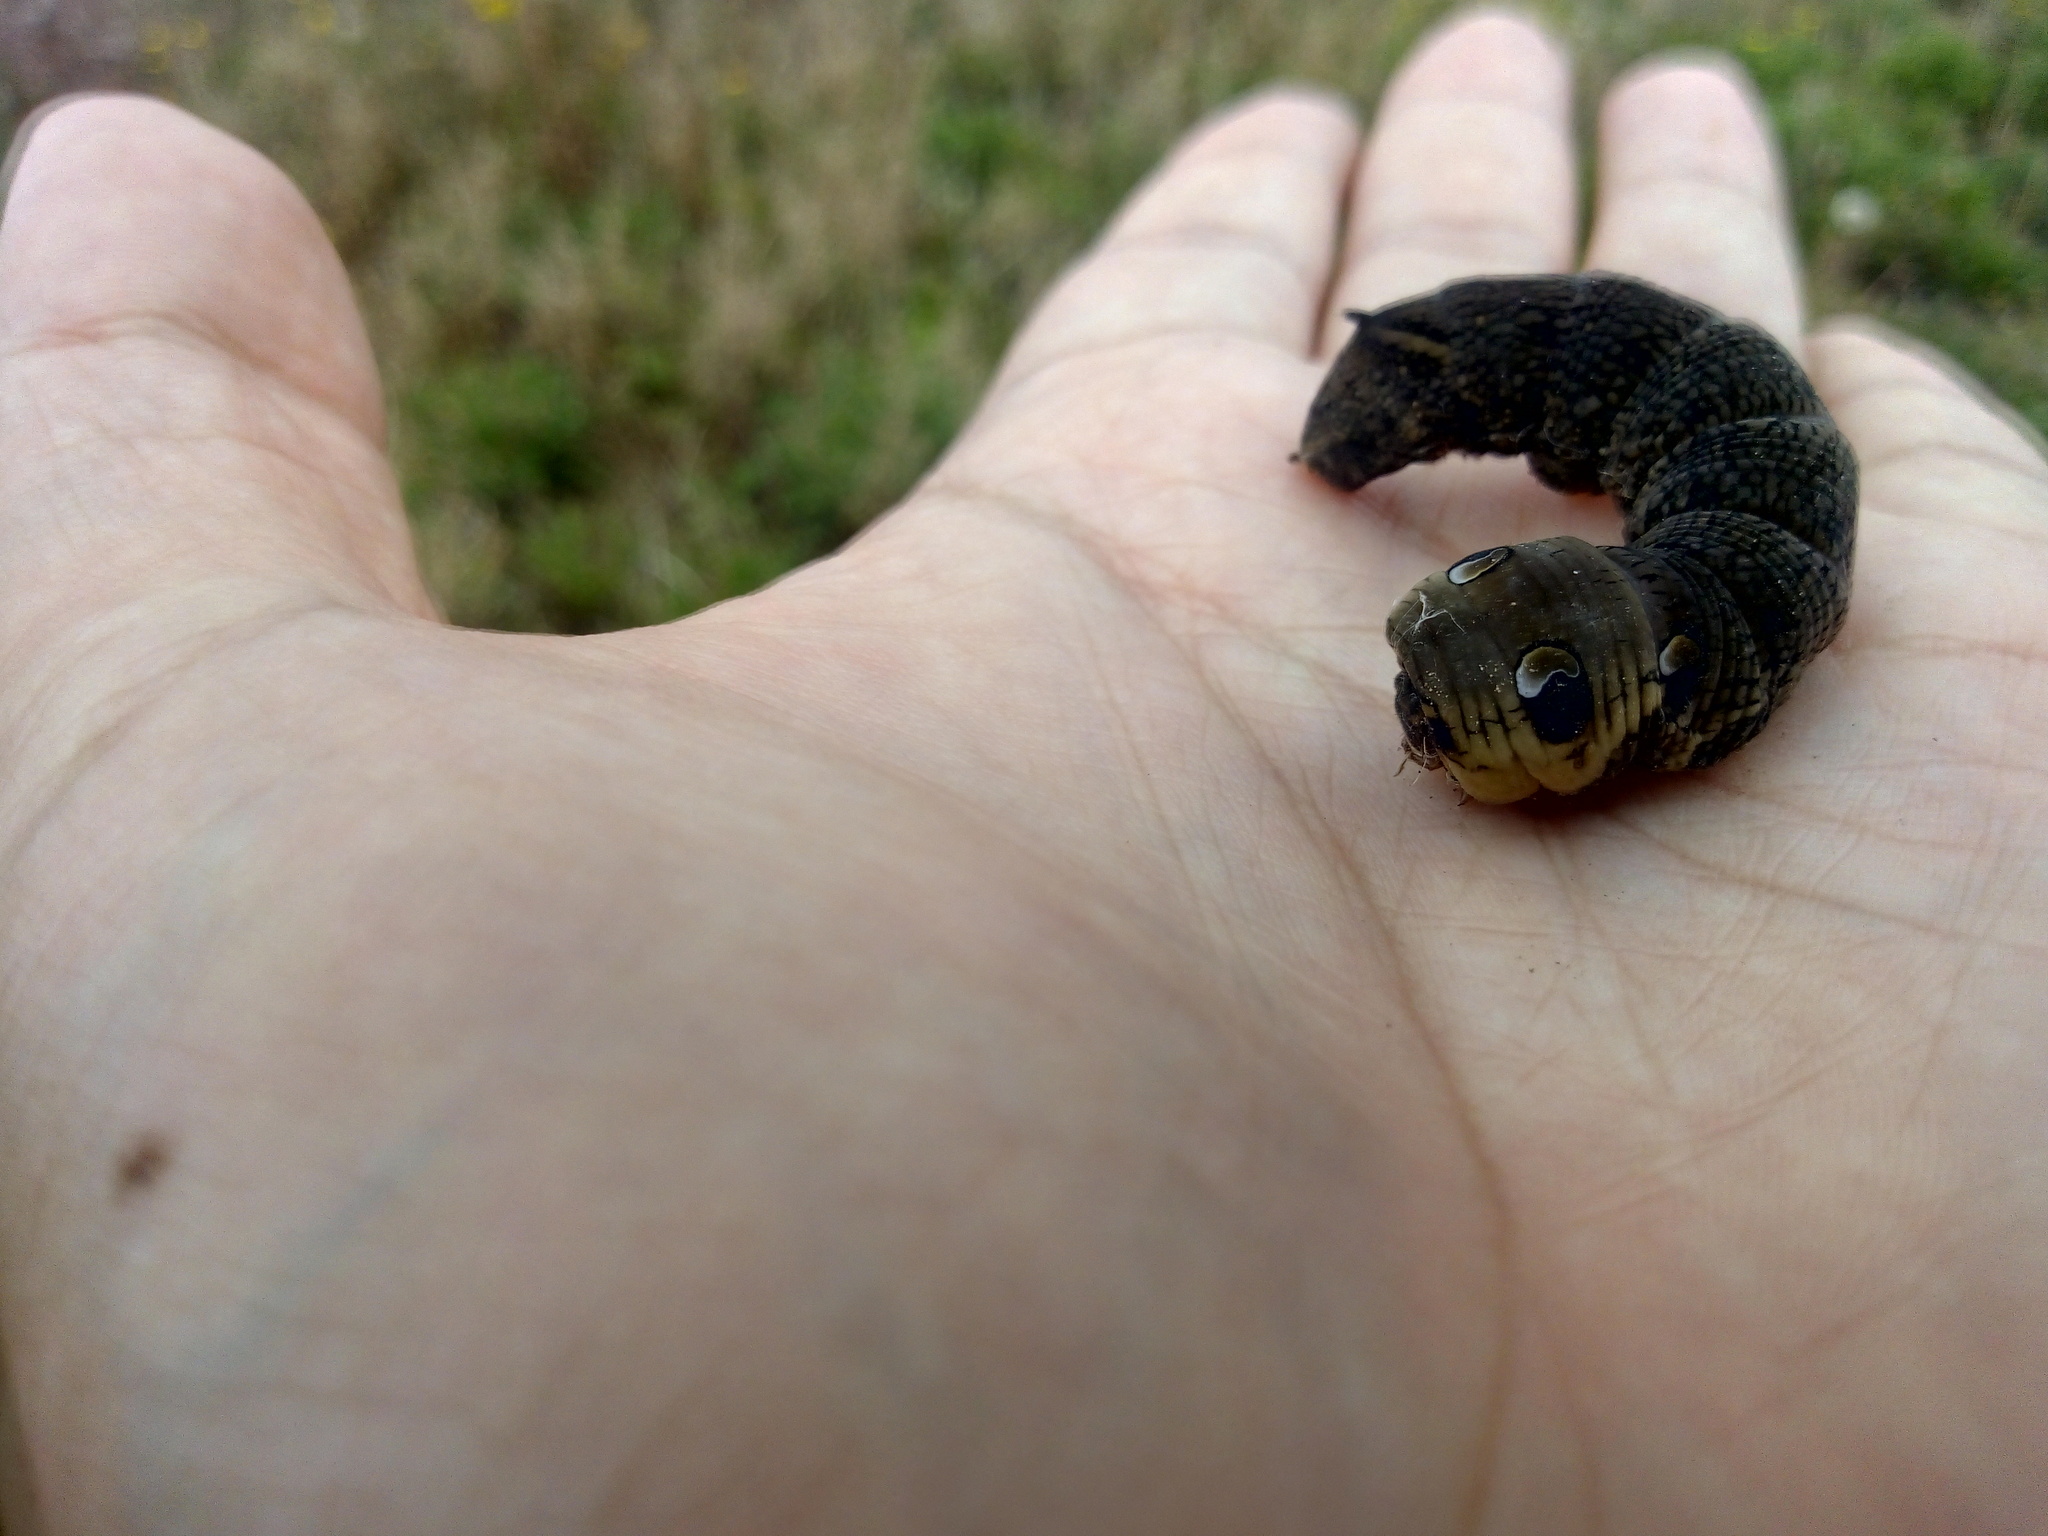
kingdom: Animalia
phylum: Arthropoda
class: Insecta
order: Lepidoptera
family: Sphingidae
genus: Deilephila
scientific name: Deilephila elpenor
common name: Elephant hawk-moth
